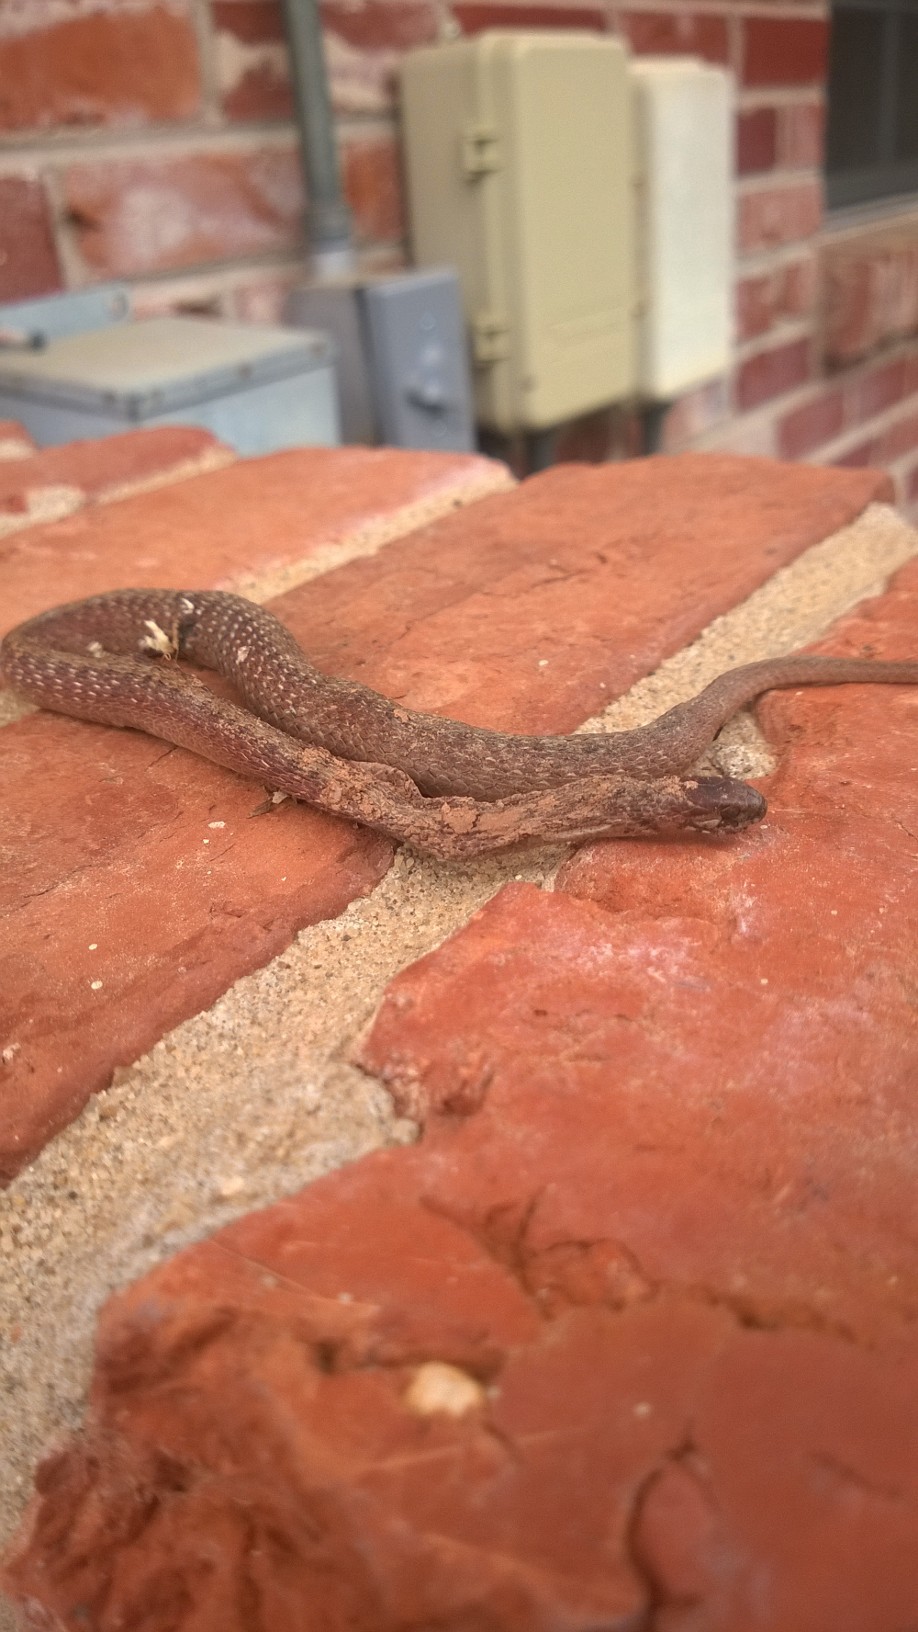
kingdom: Animalia
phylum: Chordata
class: Squamata
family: Colubridae
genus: Storeria
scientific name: Storeria dekayi
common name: (dekay’s) brown snake
